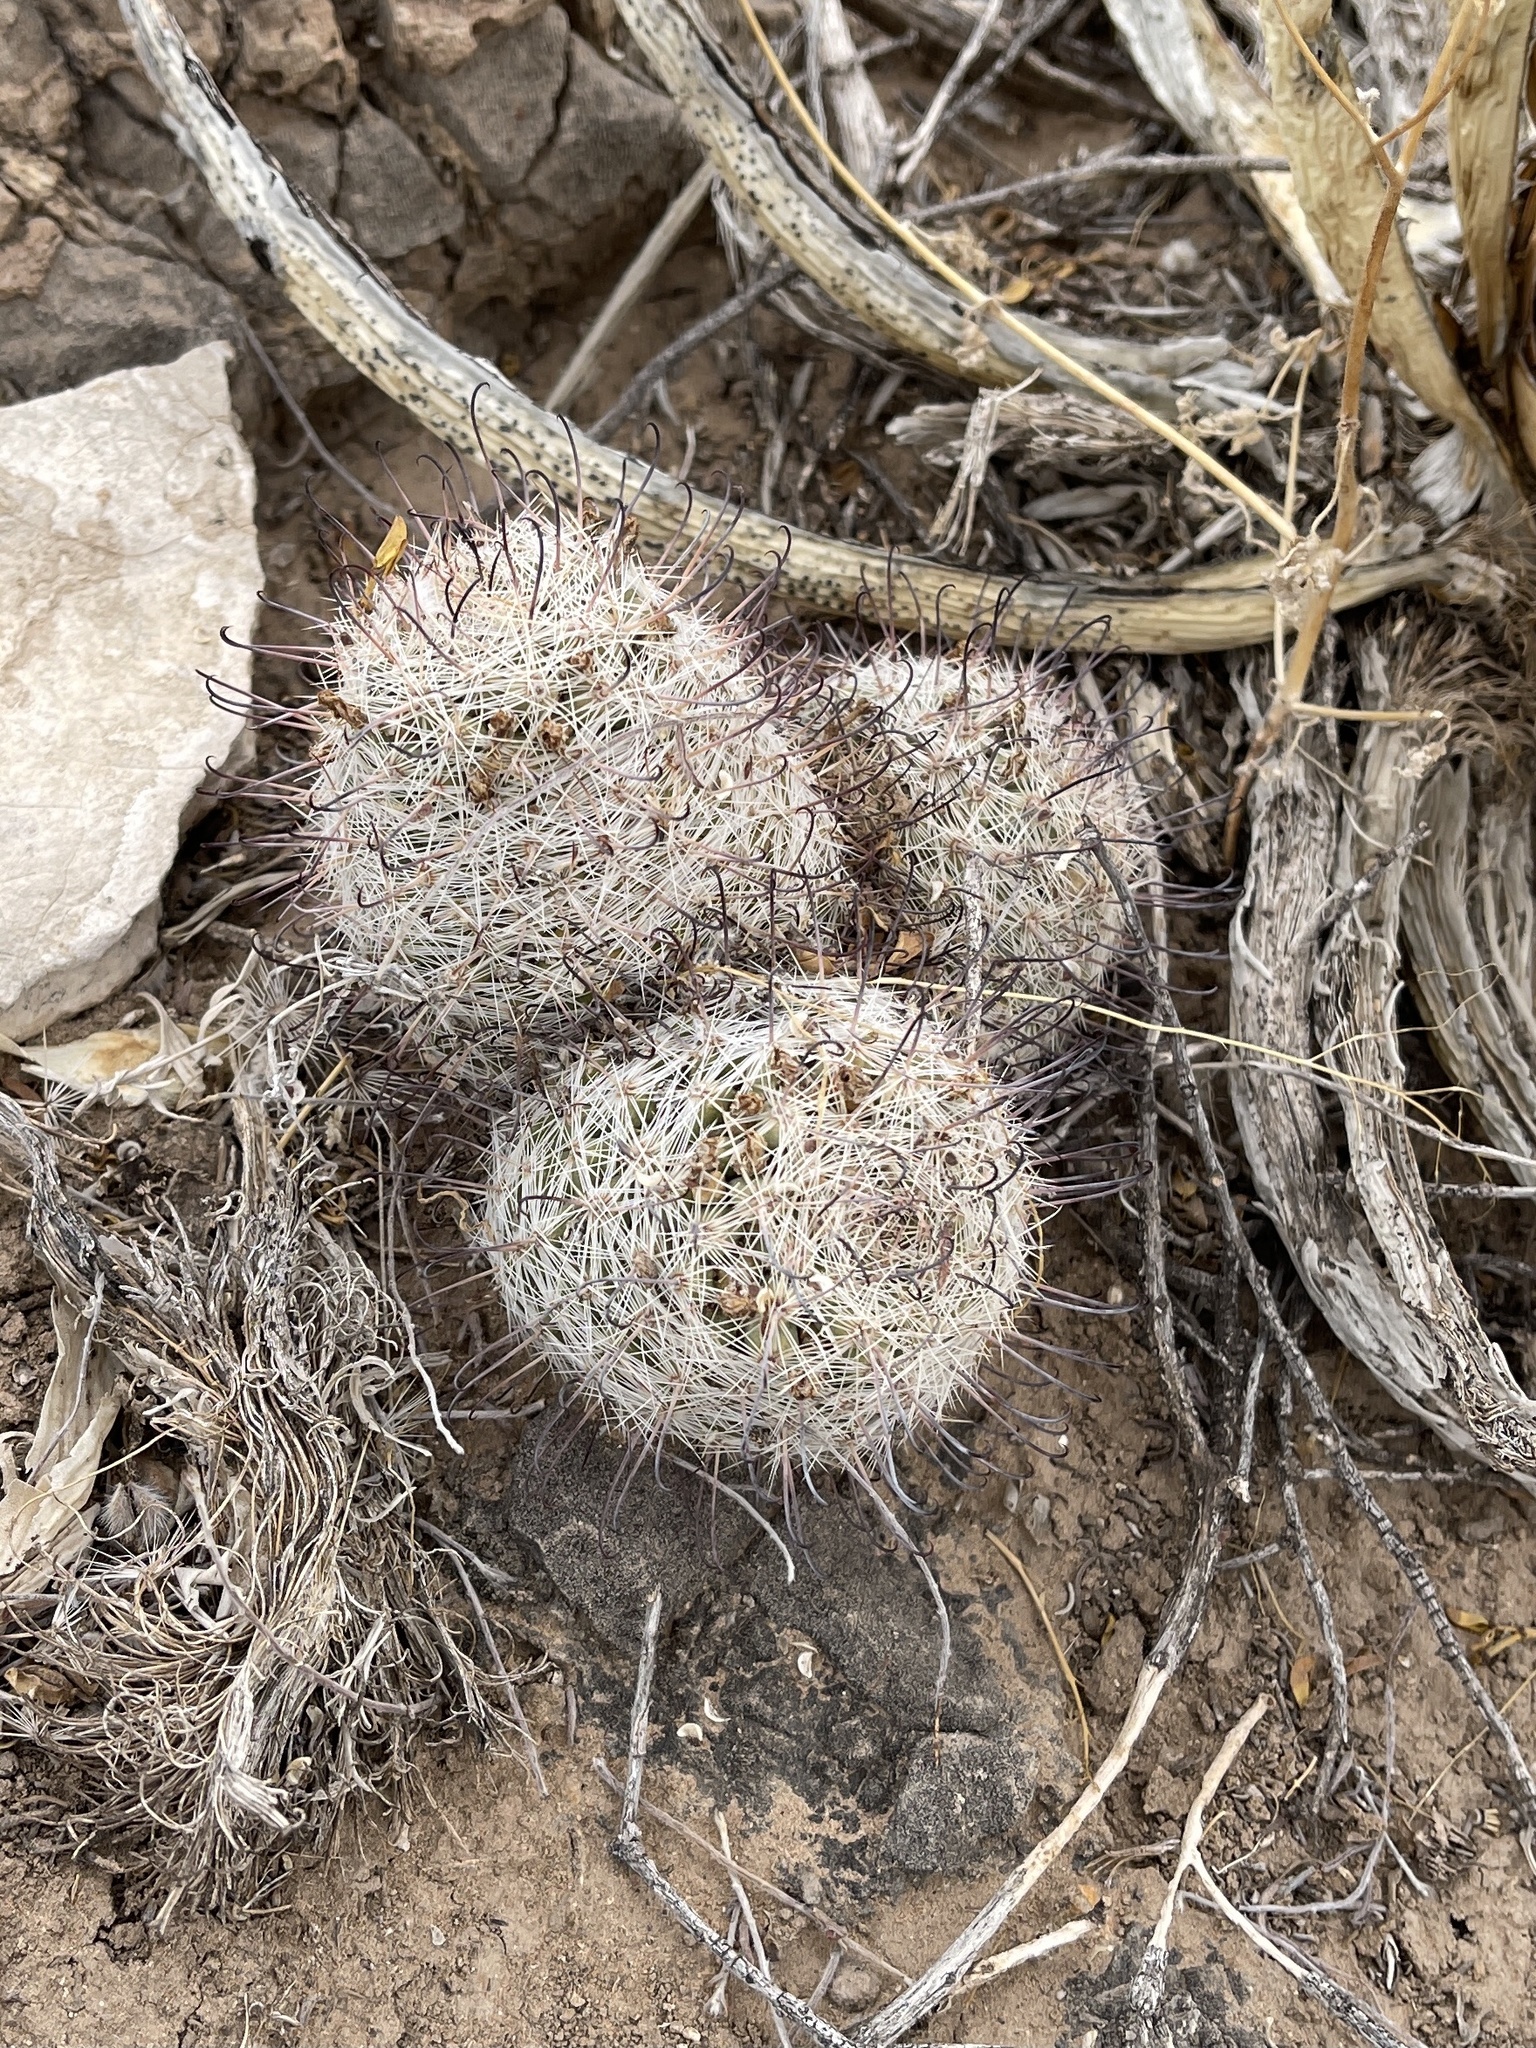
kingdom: Plantae
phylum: Tracheophyta
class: Magnoliopsida
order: Caryophyllales
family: Cactaceae
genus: Cochemiea
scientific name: Cochemiea grahamii
